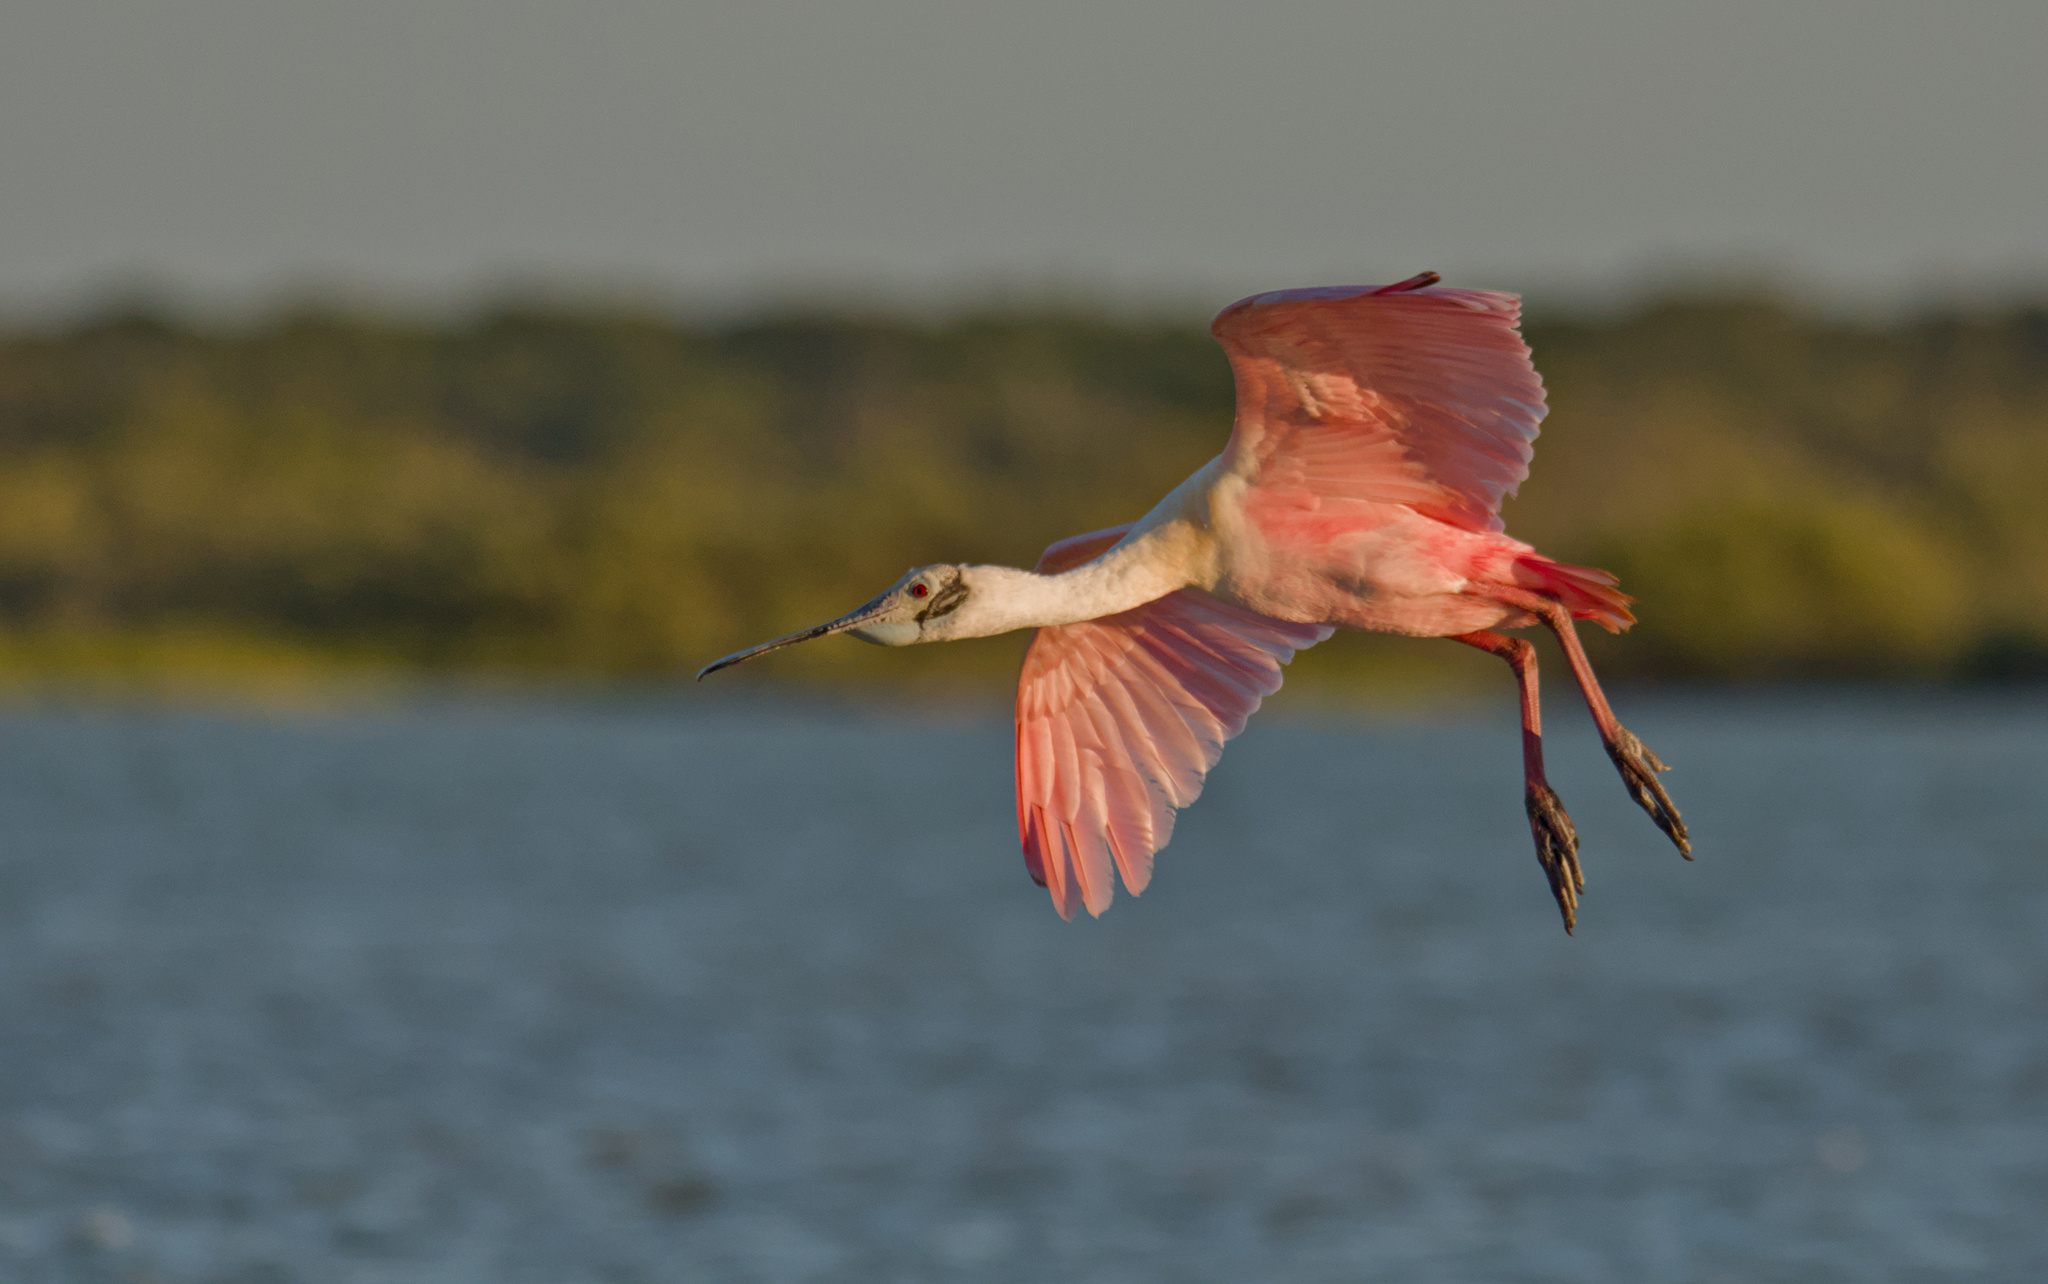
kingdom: Animalia
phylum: Chordata
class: Aves
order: Pelecaniformes
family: Threskiornithidae
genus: Platalea
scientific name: Platalea ajaja
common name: Roseate spoonbill
